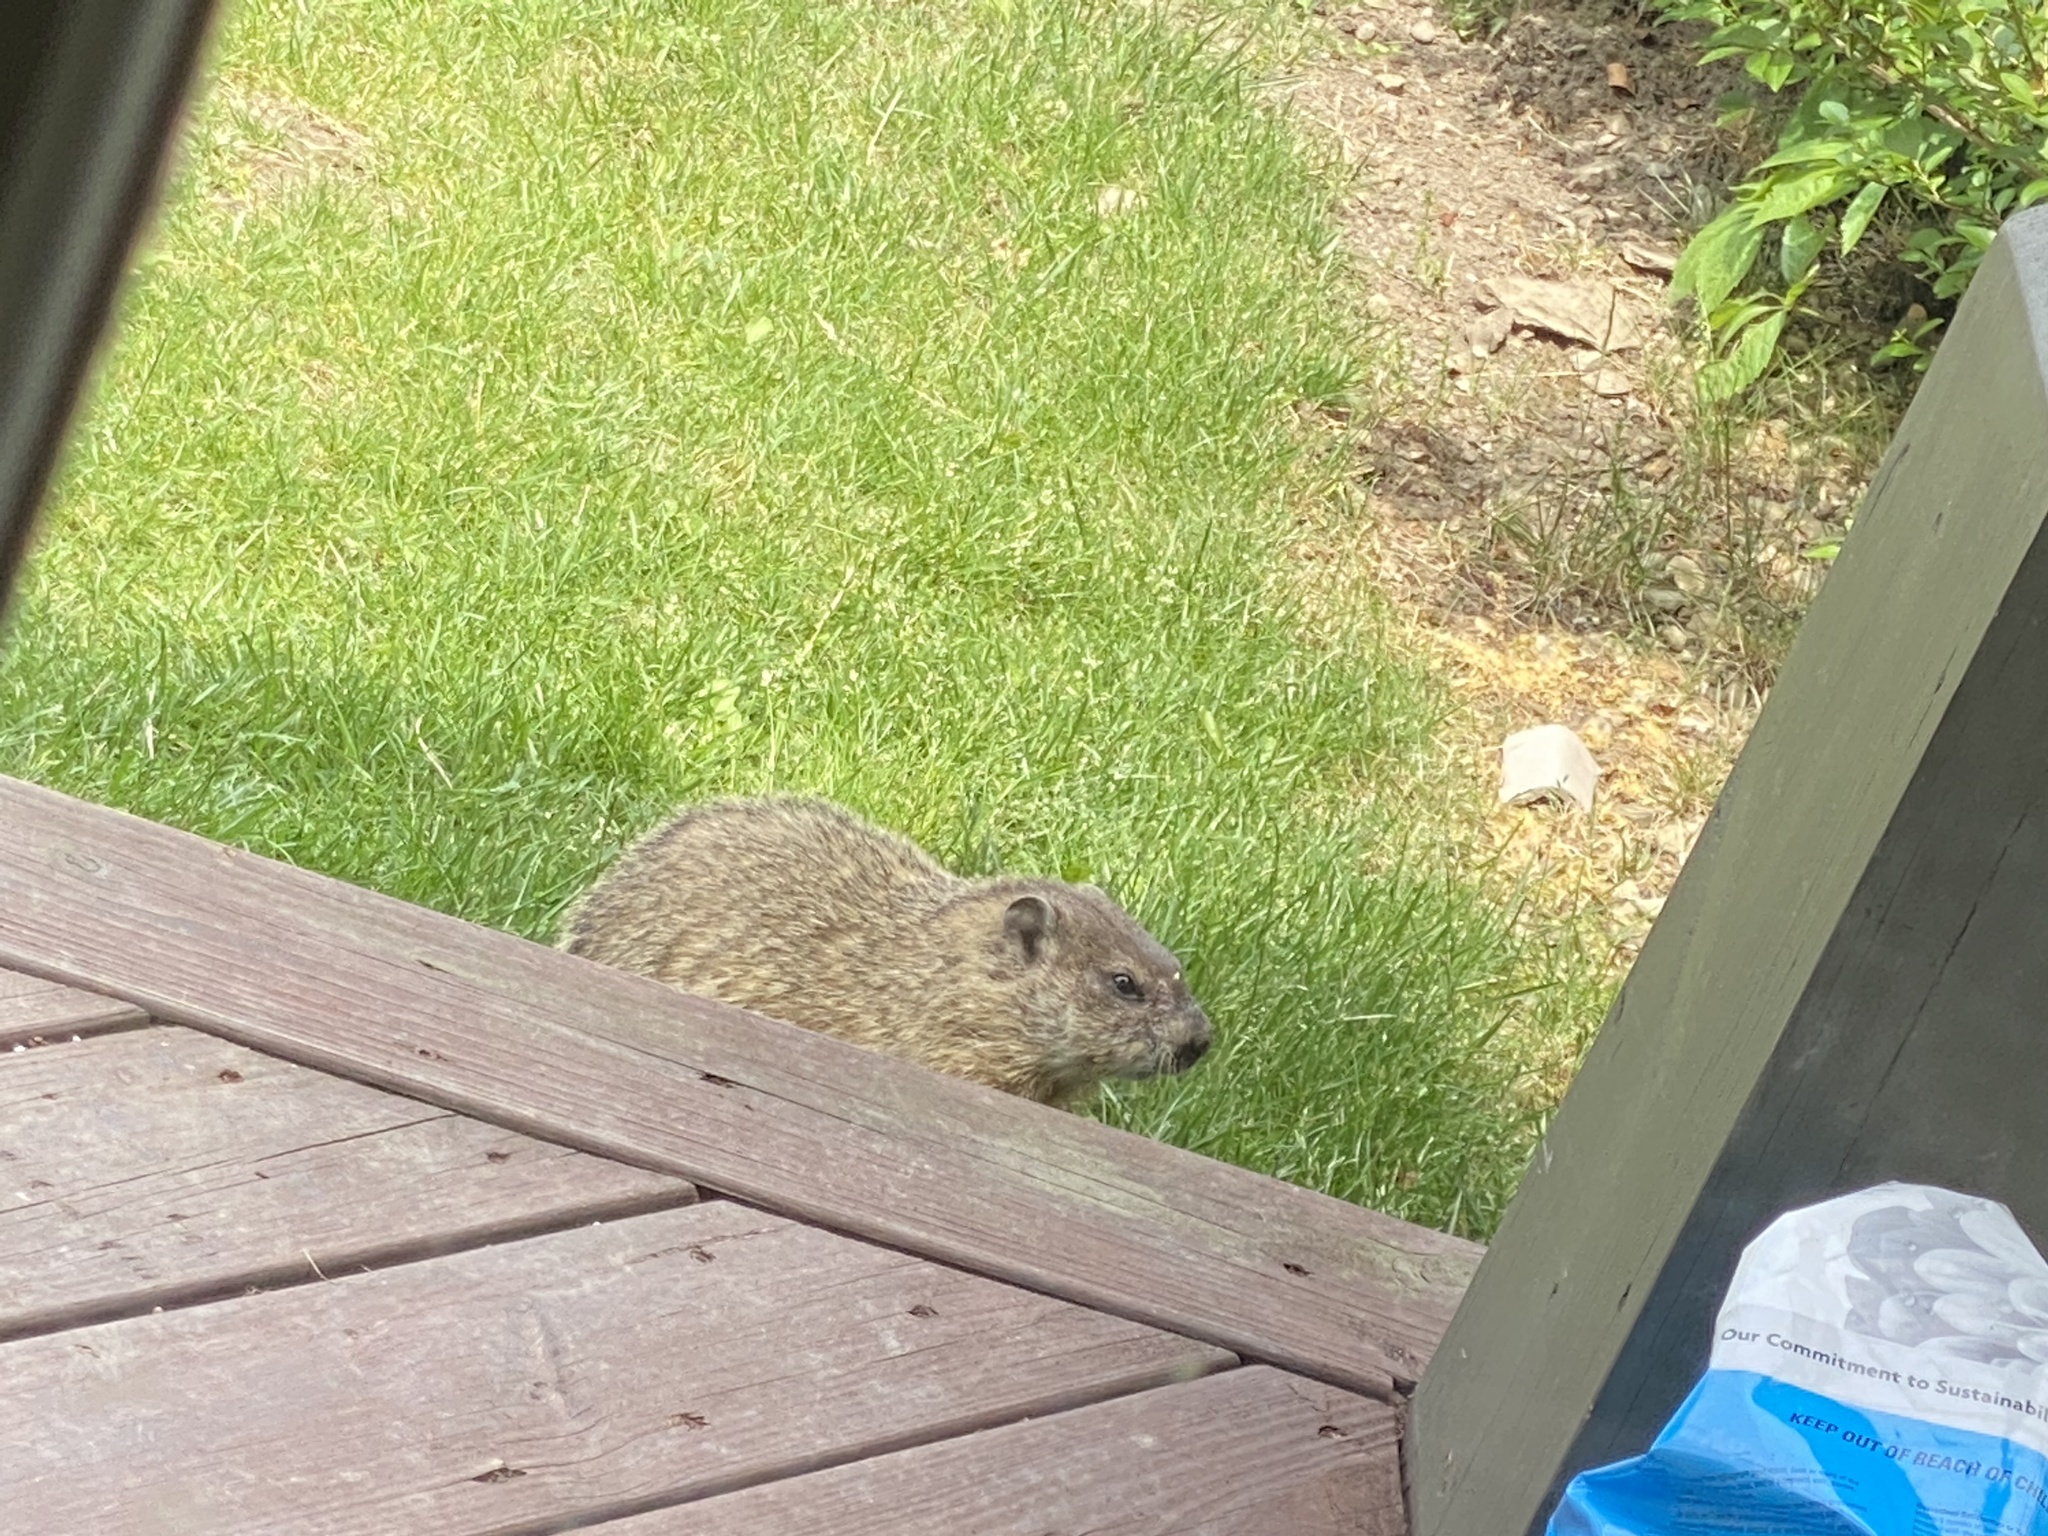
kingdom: Animalia
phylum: Chordata
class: Mammalia
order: Rodentia
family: Sciuridae
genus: Marmota
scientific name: Marmota monax
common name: Groundhog
